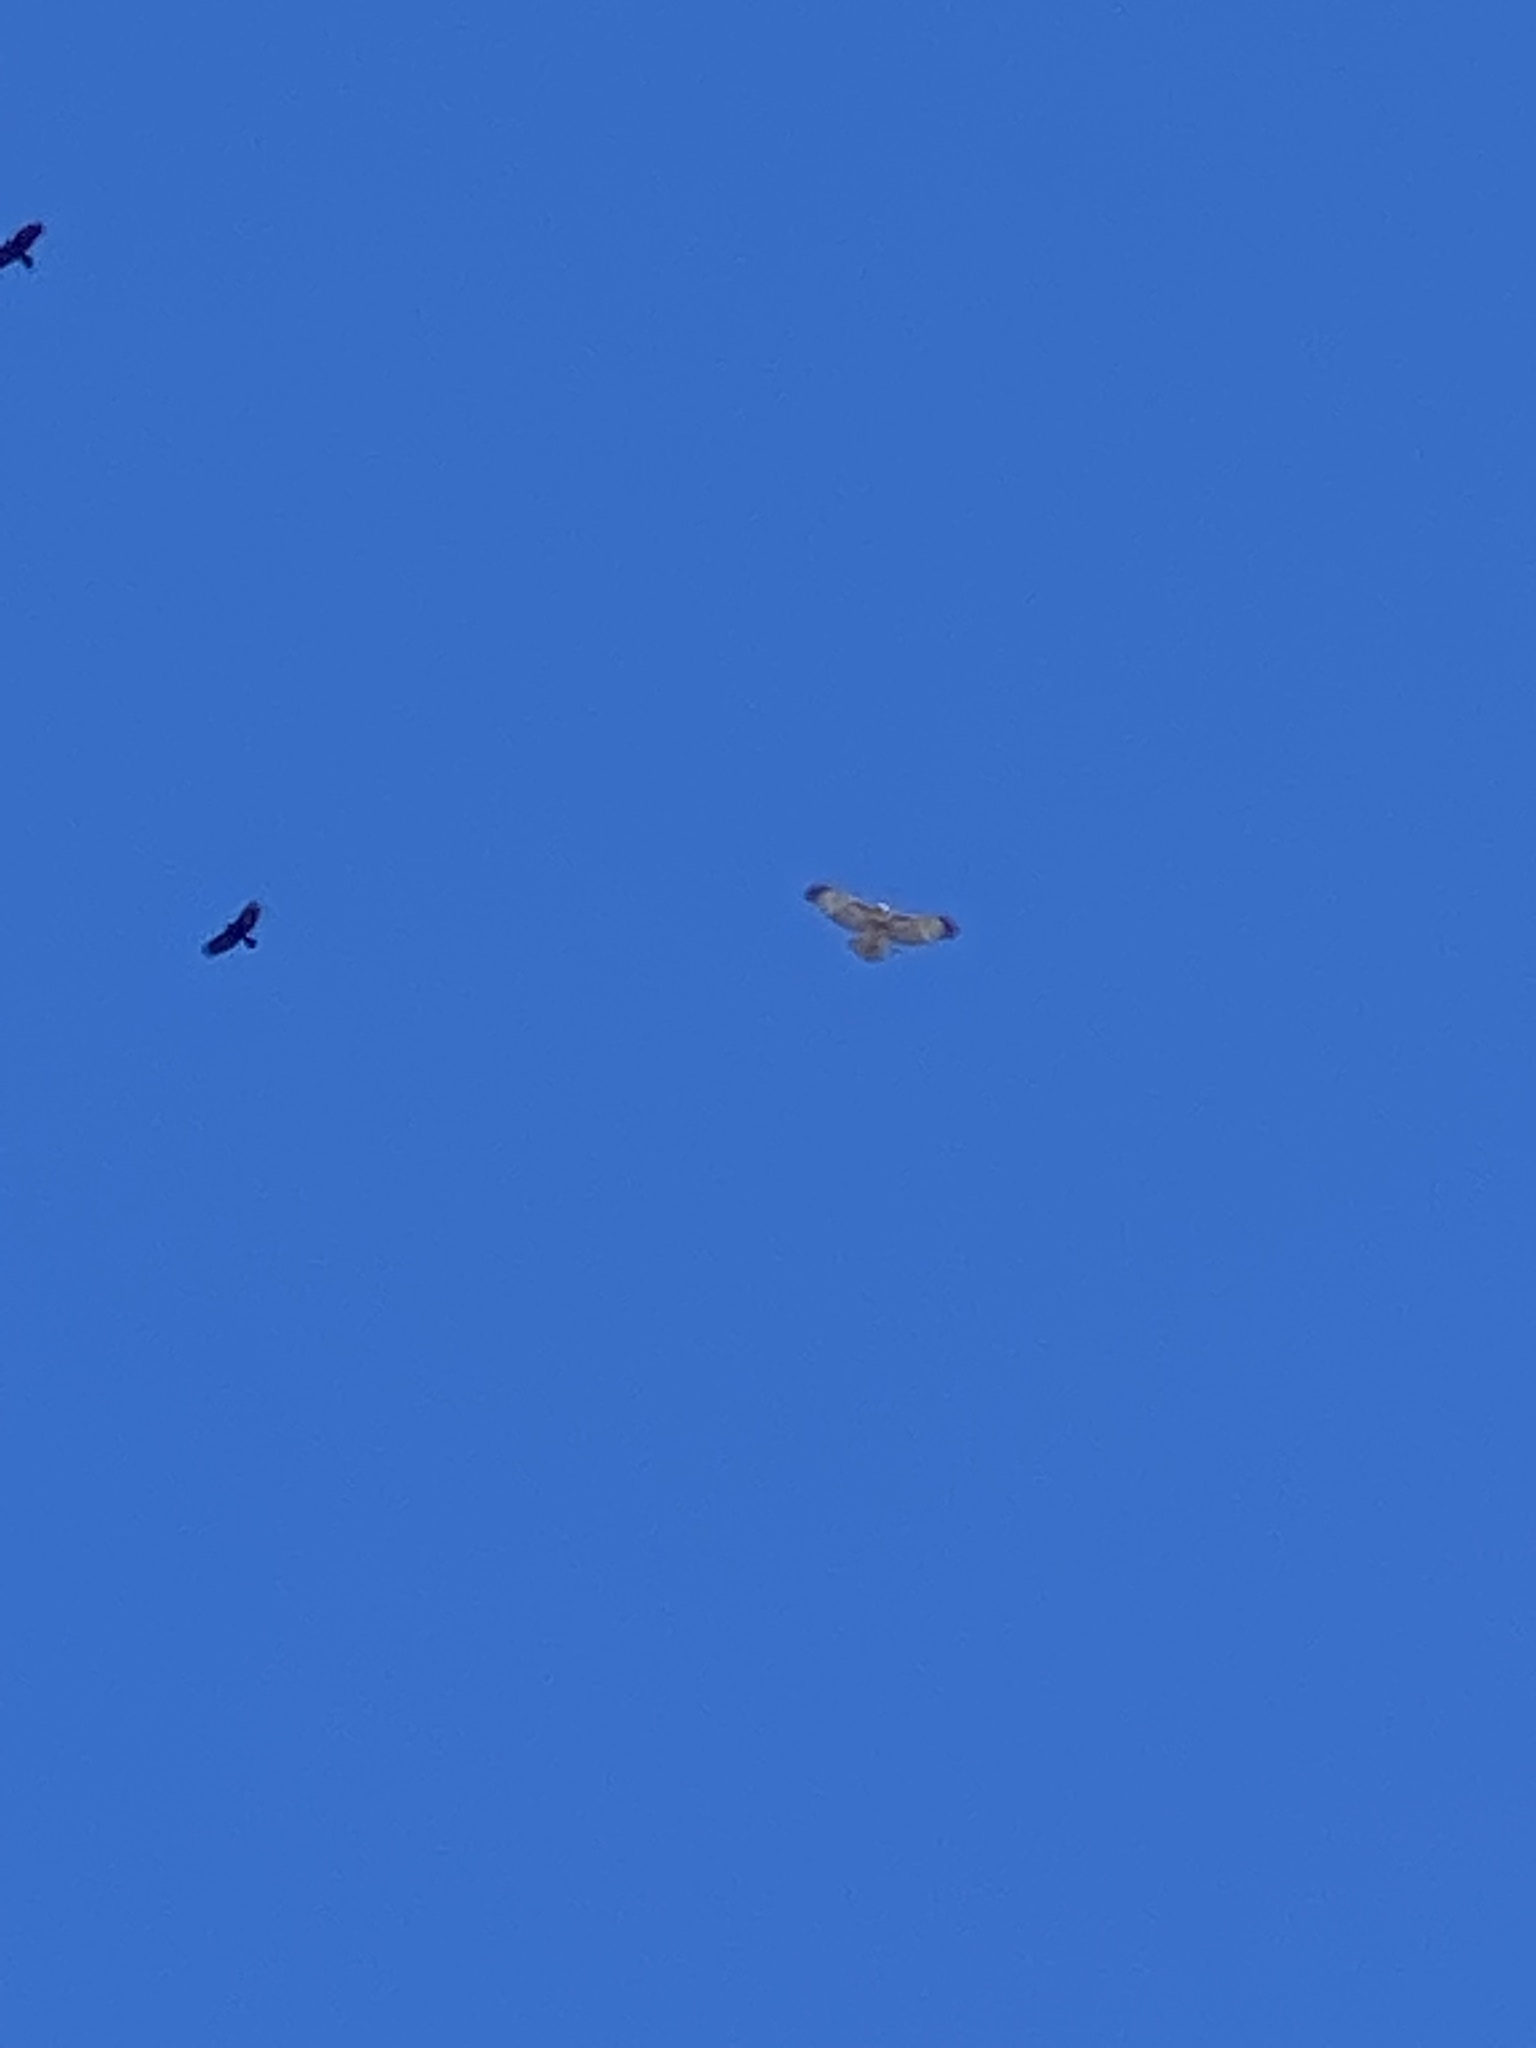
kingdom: Animalia
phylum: Chordata
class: Aves
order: Accipitriformes
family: Accipitridae
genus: Buteo
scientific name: Buteo jamaicensis
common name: Red-tailed hawk
